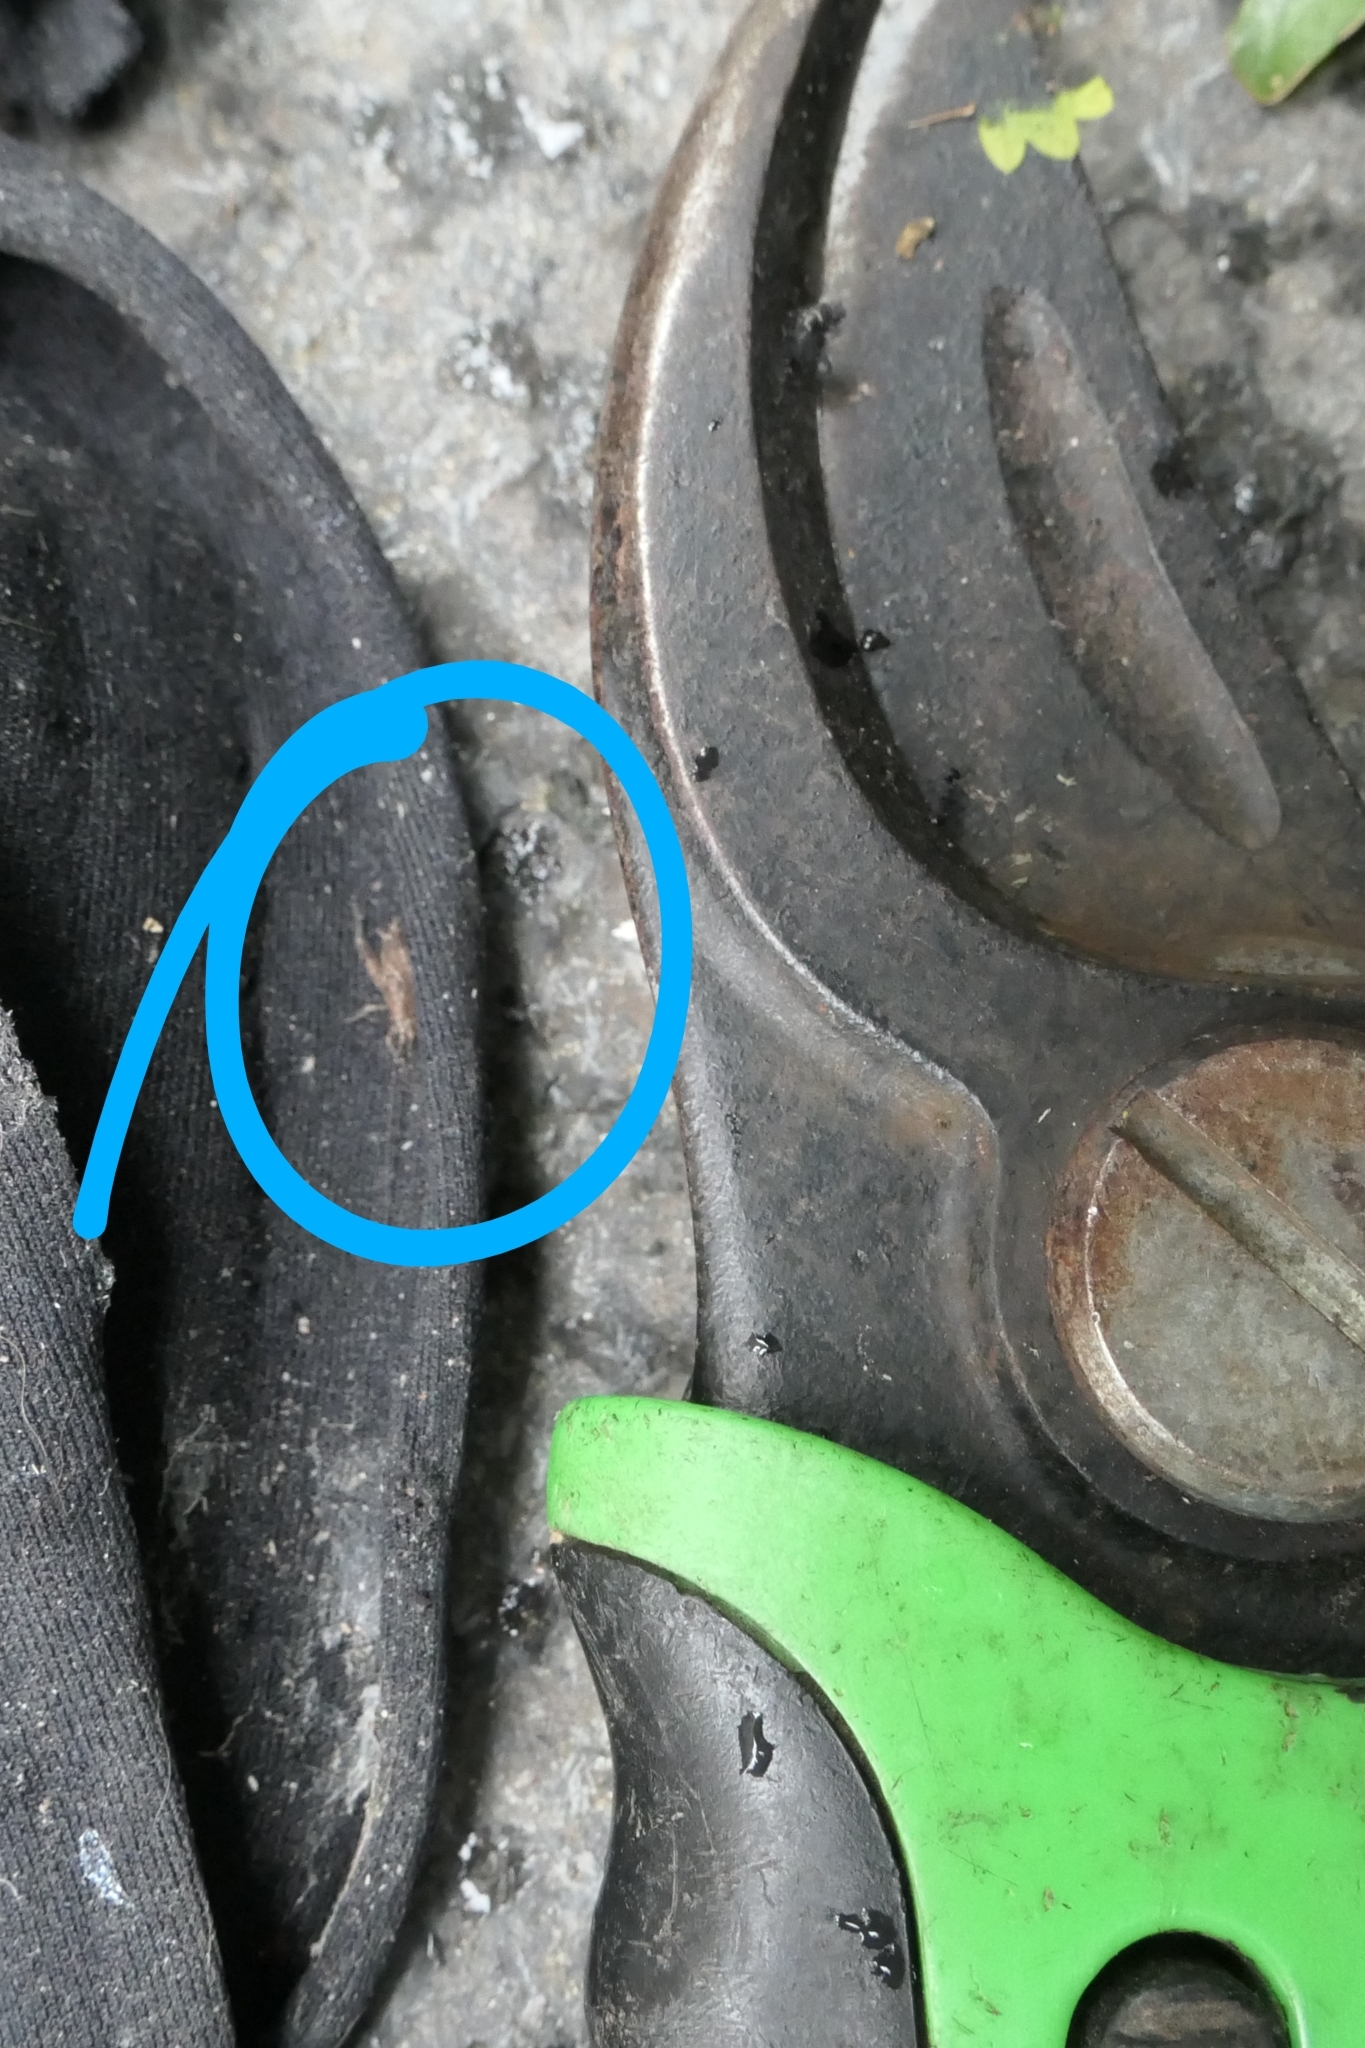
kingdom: Animalia
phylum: Arthropoda
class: Insecta
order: Orthoptera
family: Rhaphidophoridae
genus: Isoplectron
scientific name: Isoplectron armatum
